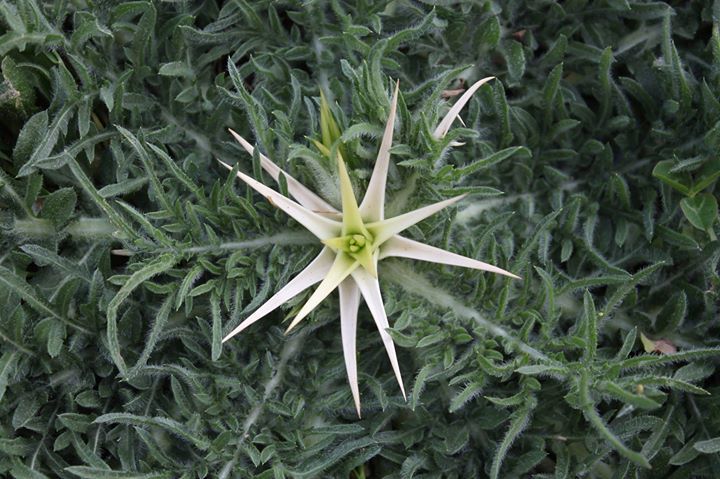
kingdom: Plantae
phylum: Tracheophyta
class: Magnoliopsida
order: Asterales
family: Asteraceae
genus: Centaurea
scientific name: Centaurea calcitrapa
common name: Red star-thistle
